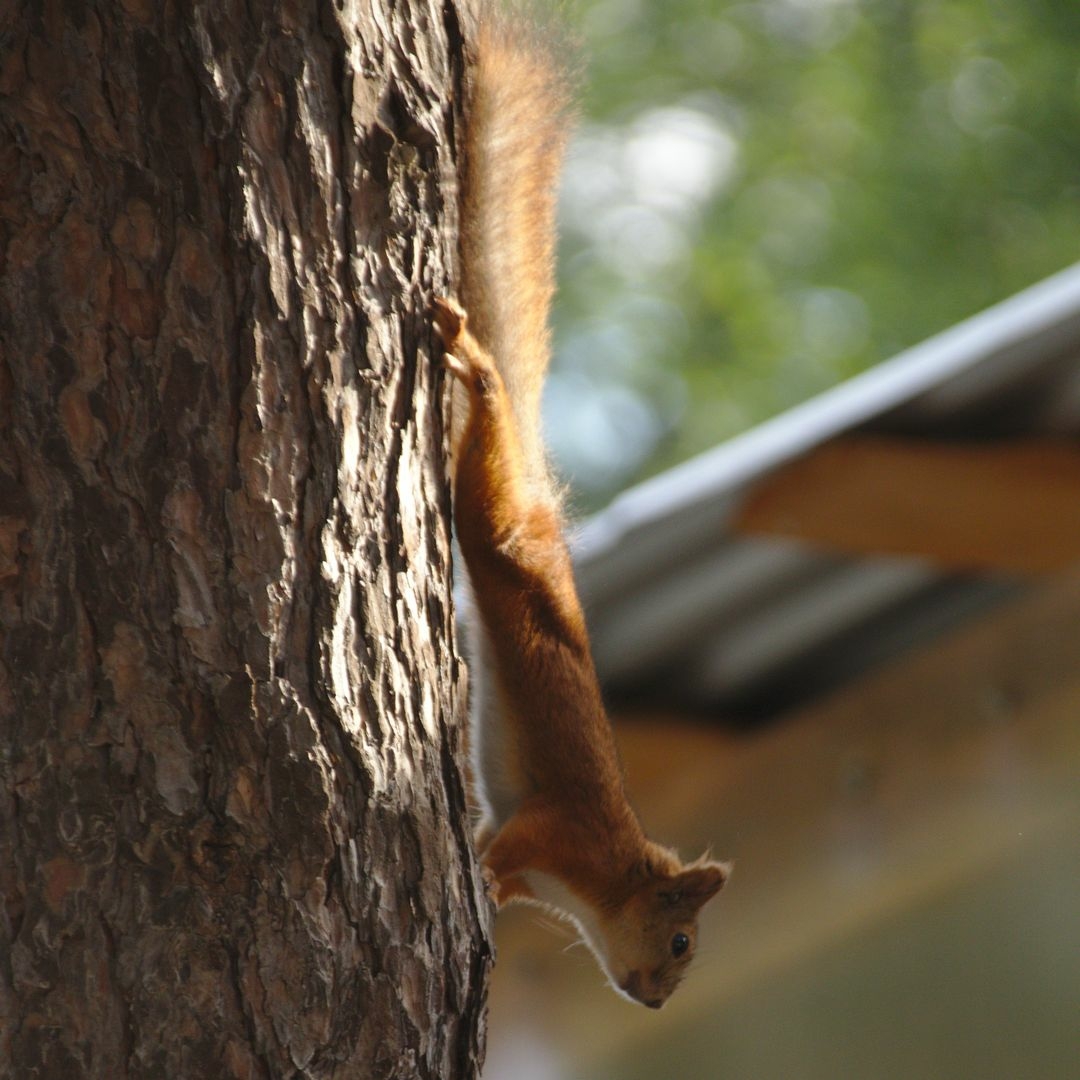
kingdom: Animalia
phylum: Chordata
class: Mammalia
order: Rodentia
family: Sciuridae
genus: Sciurus
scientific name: Sciurus vulgaris
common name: Eurasian red squirrel
